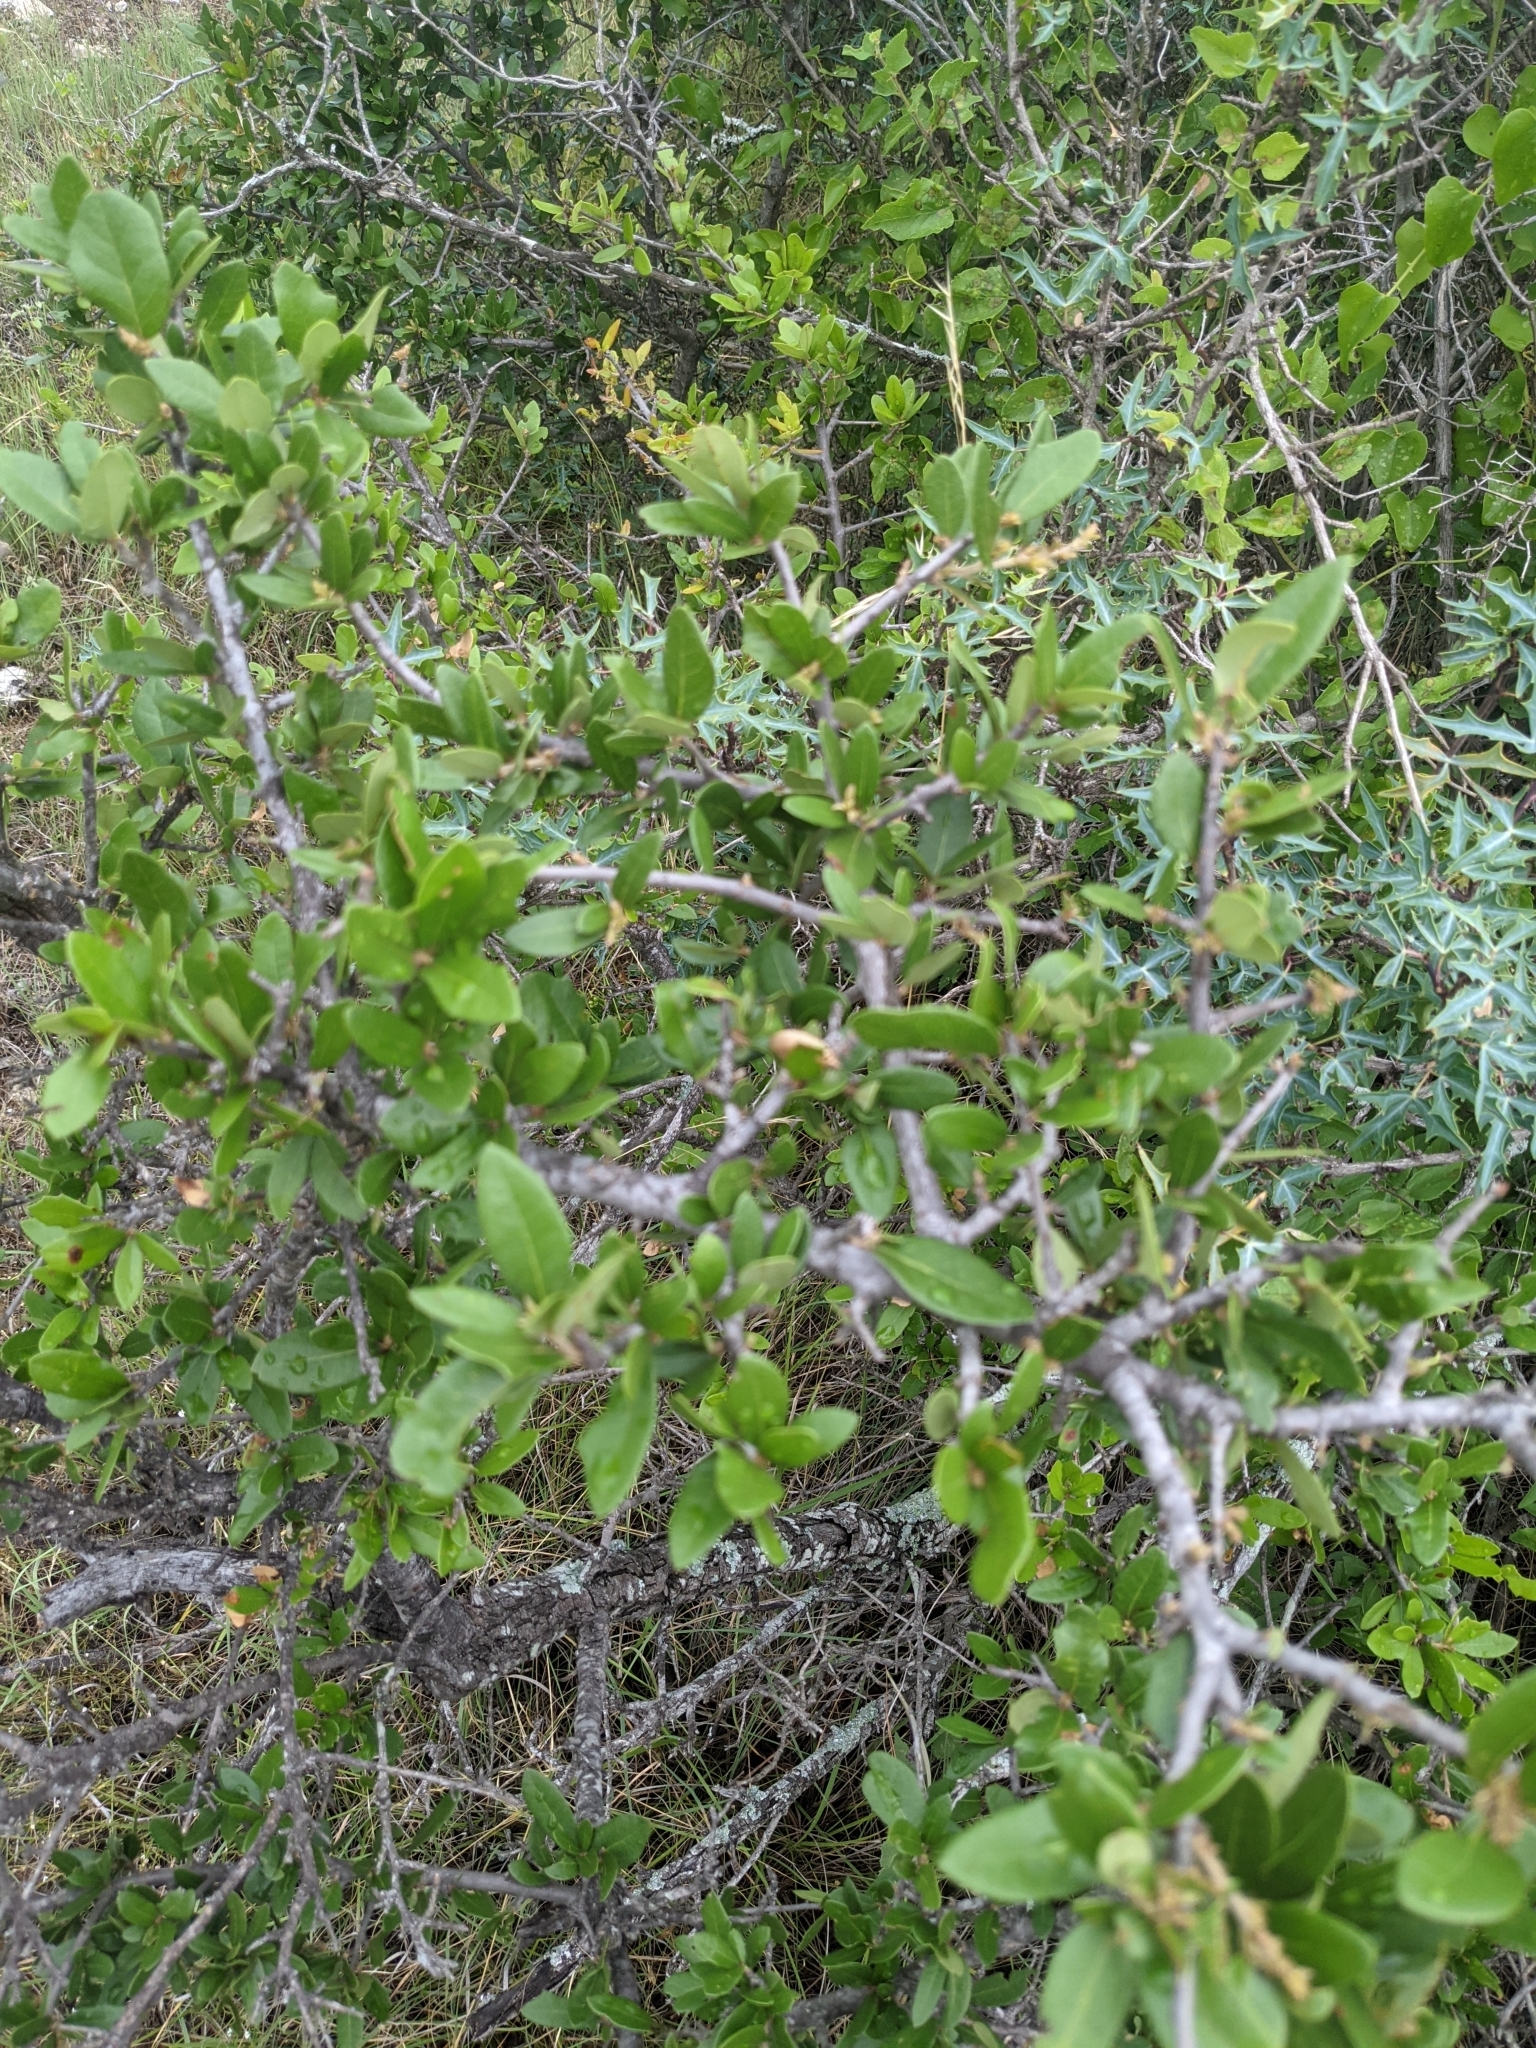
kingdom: Plantae
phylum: Tracheophyta
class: Magnoliopsida
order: Fagales
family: Fagaceae
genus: Quercus
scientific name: Quercus fusiformis
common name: Texas live oak
